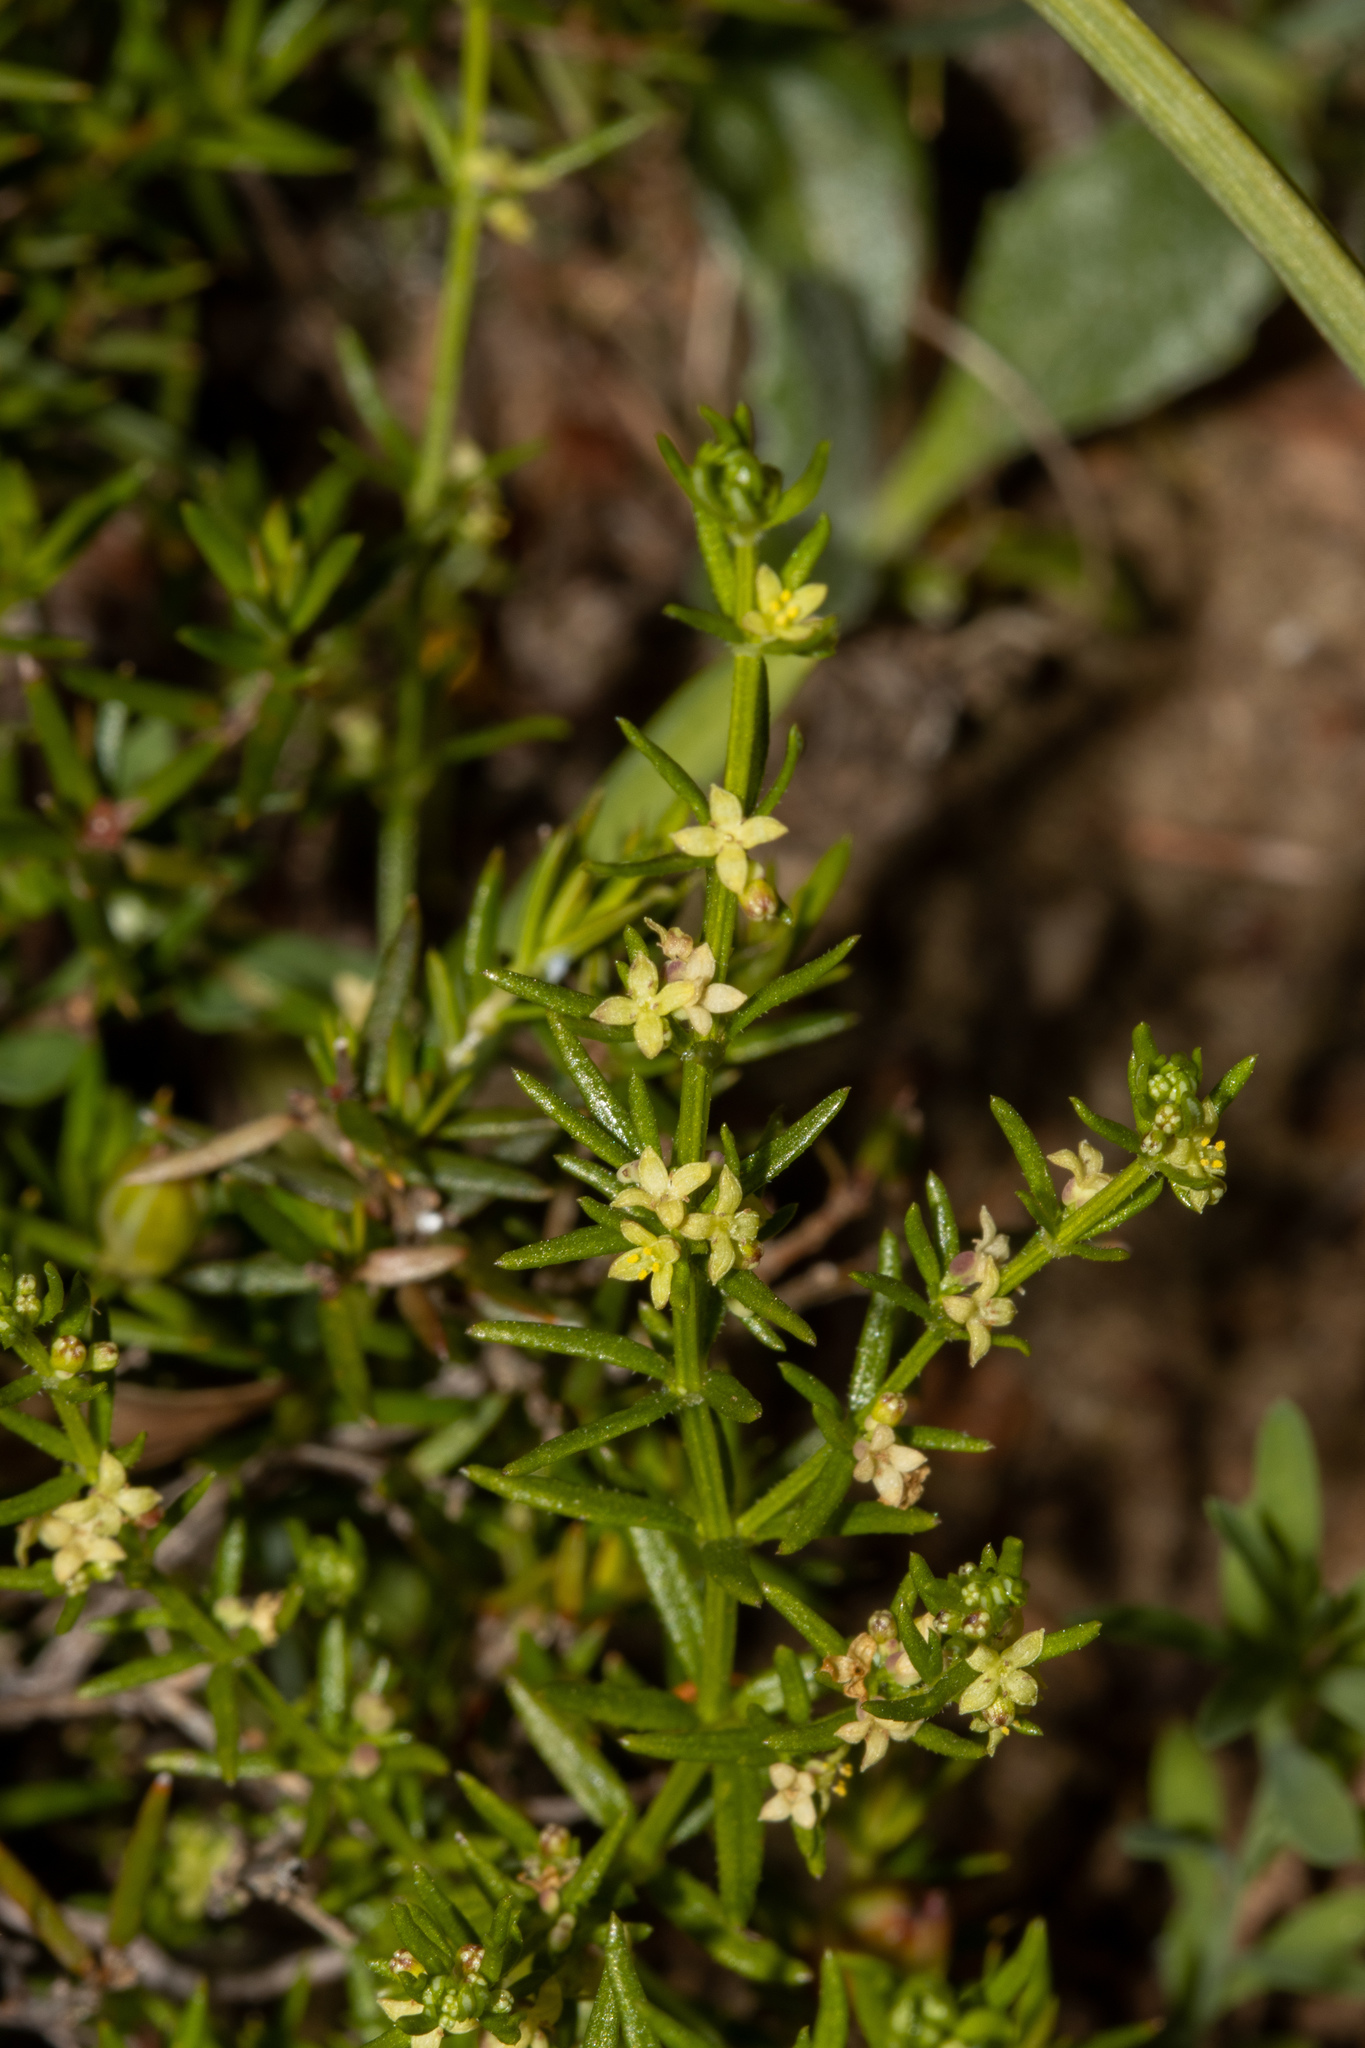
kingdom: Plantae
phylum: Tracheophyta
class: Magnoliopsida
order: Gentianales
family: Rubiaceae
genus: Galium
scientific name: Galium gaudichaudii
